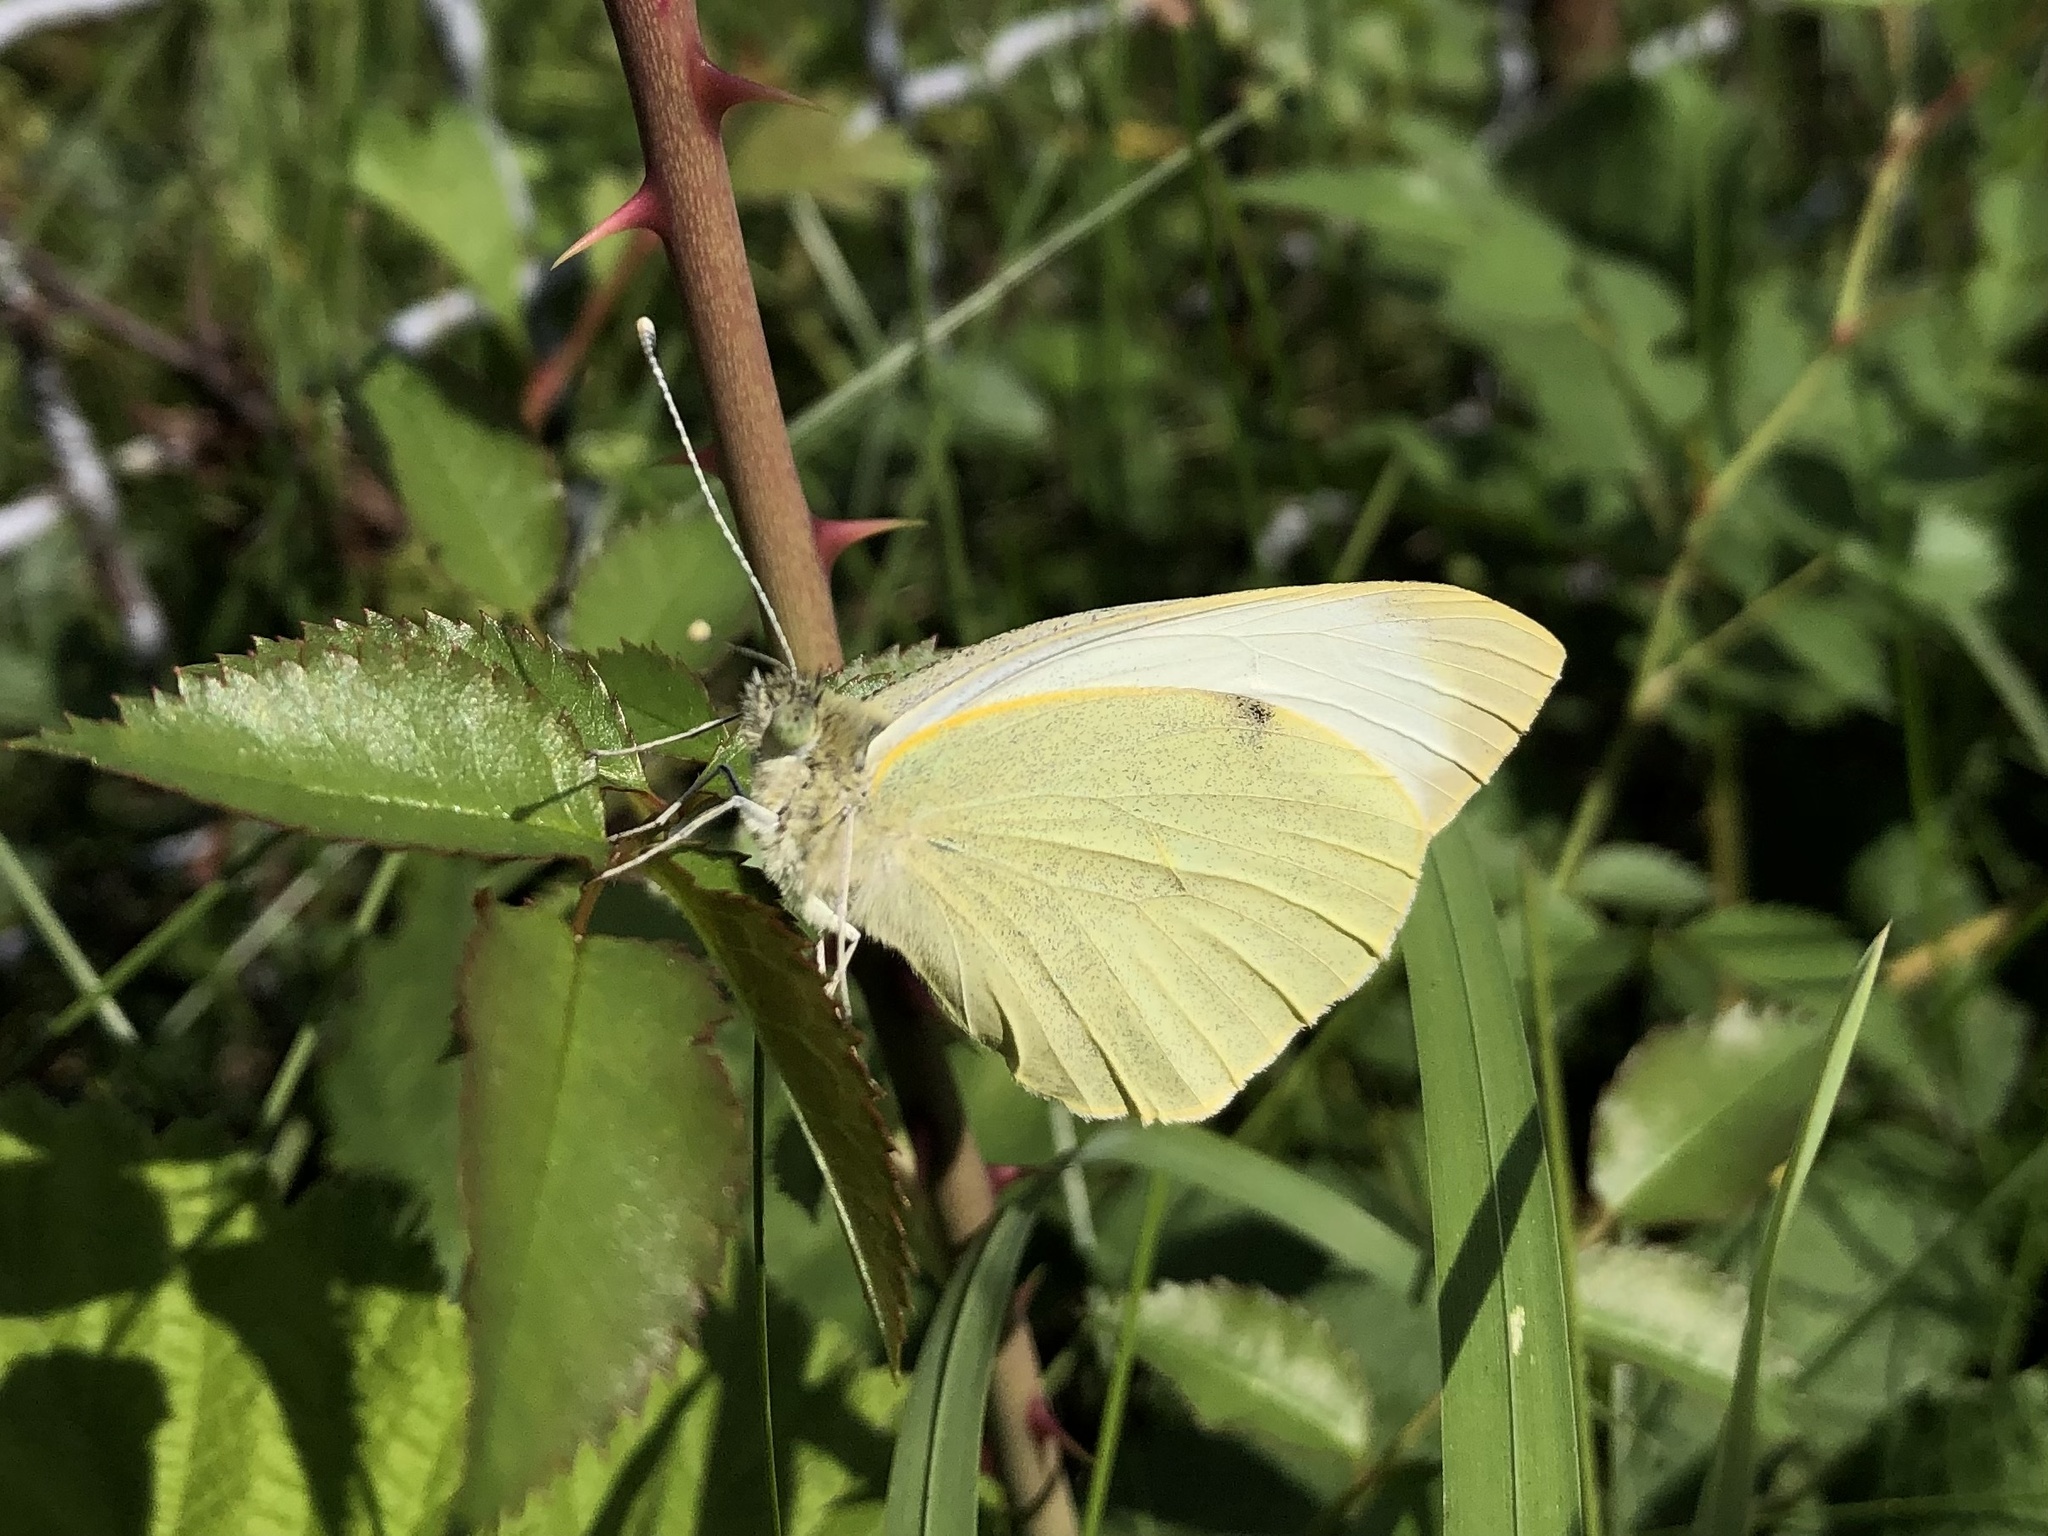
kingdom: Animalia
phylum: Arthropoda
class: Insecta
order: Lepidoptera
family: Pieridae
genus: Pieris
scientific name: Pieris brassicae
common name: Large white
